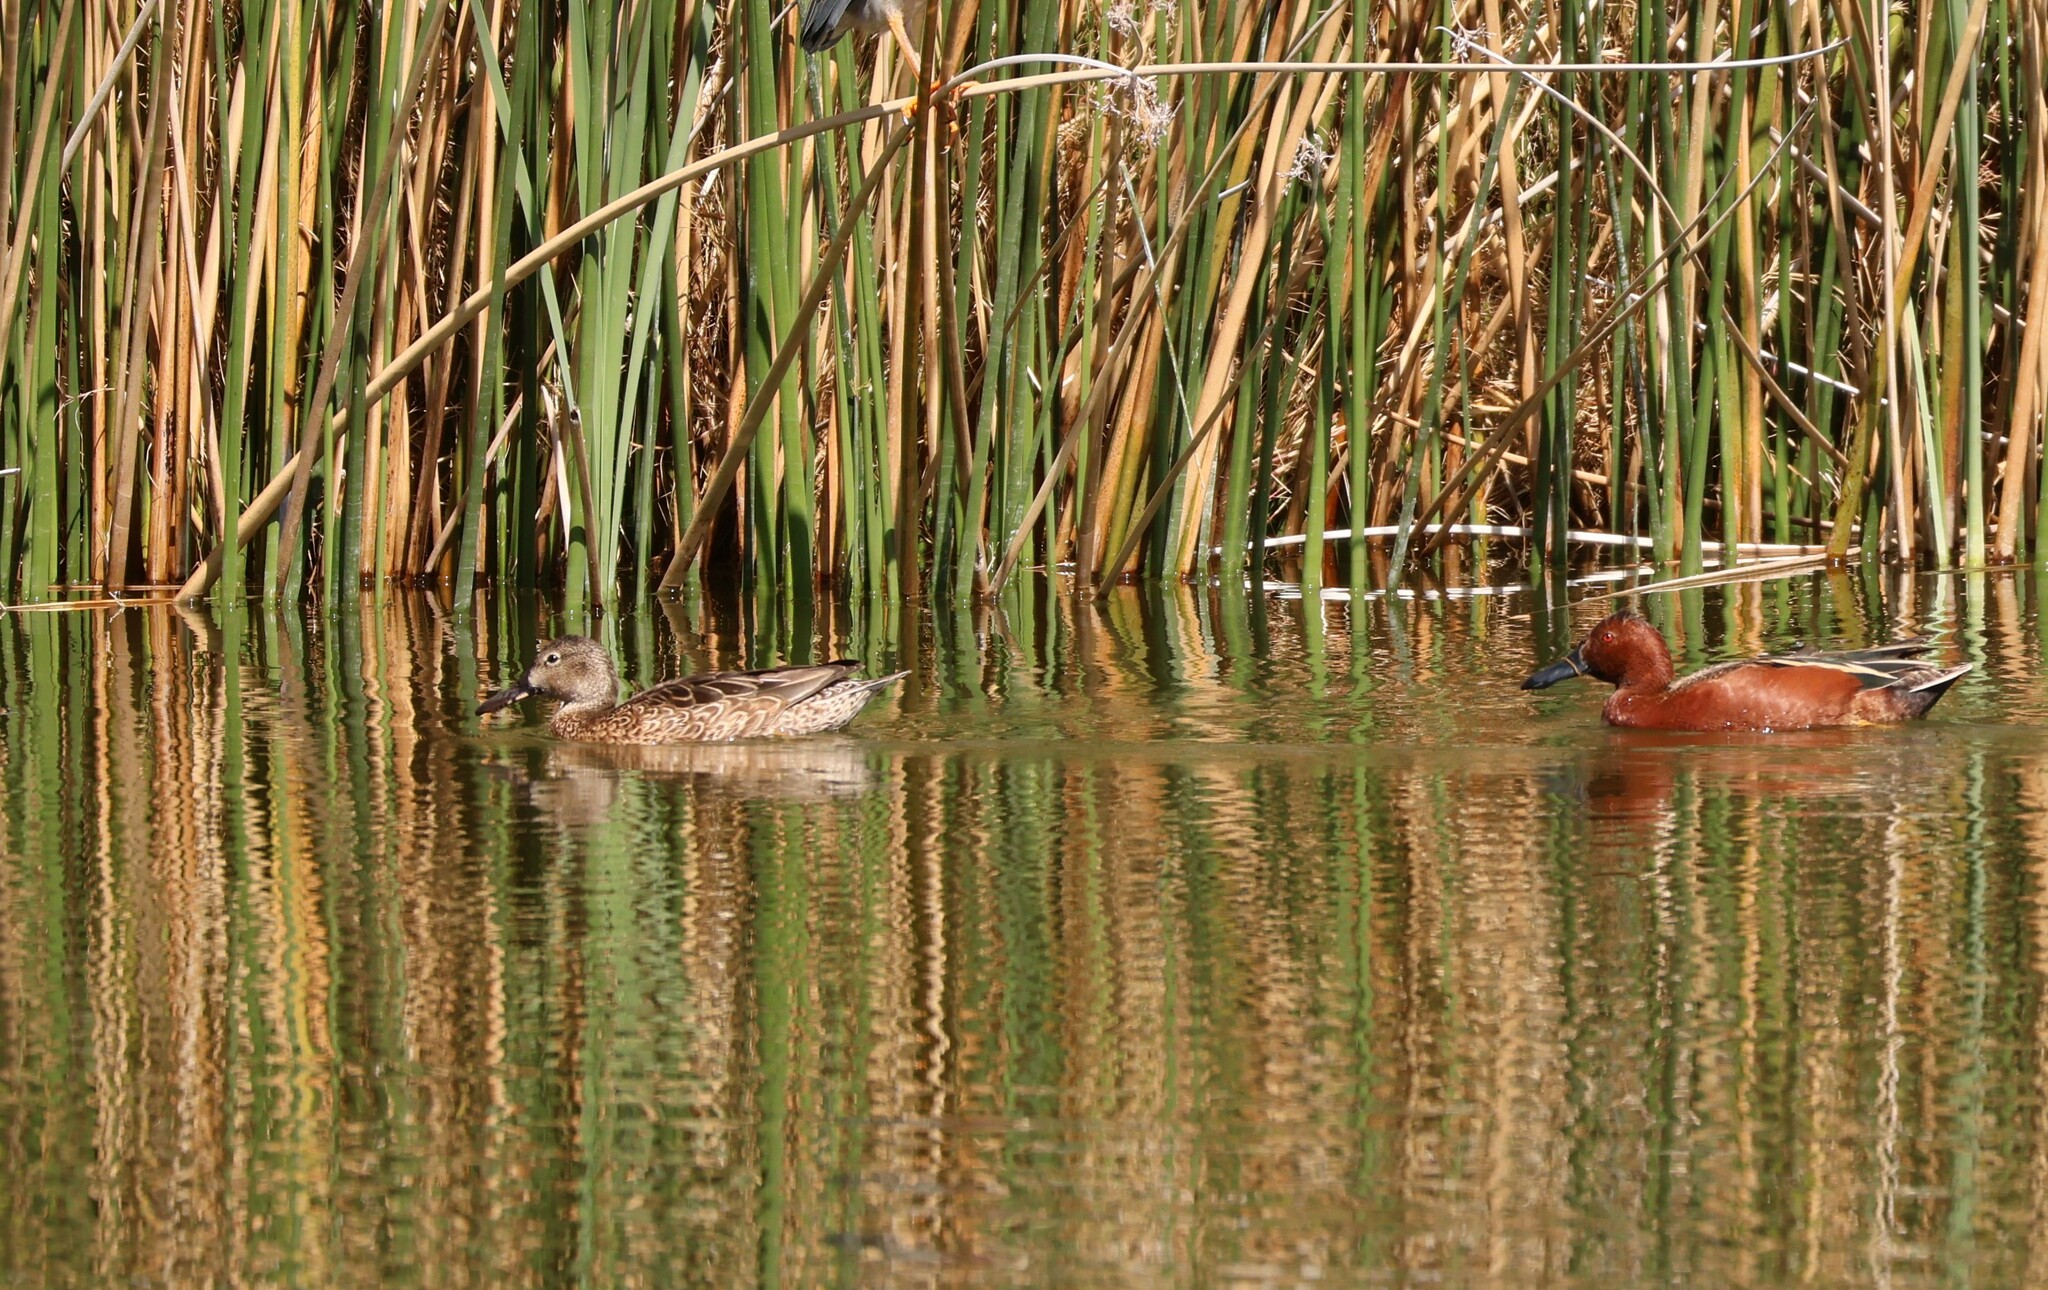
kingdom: Animalia
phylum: Chordata
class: Aves
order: Anseriformes
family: Anatidae
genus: Spatula
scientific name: Spatula cyanoptera
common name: Cinnamon teal
